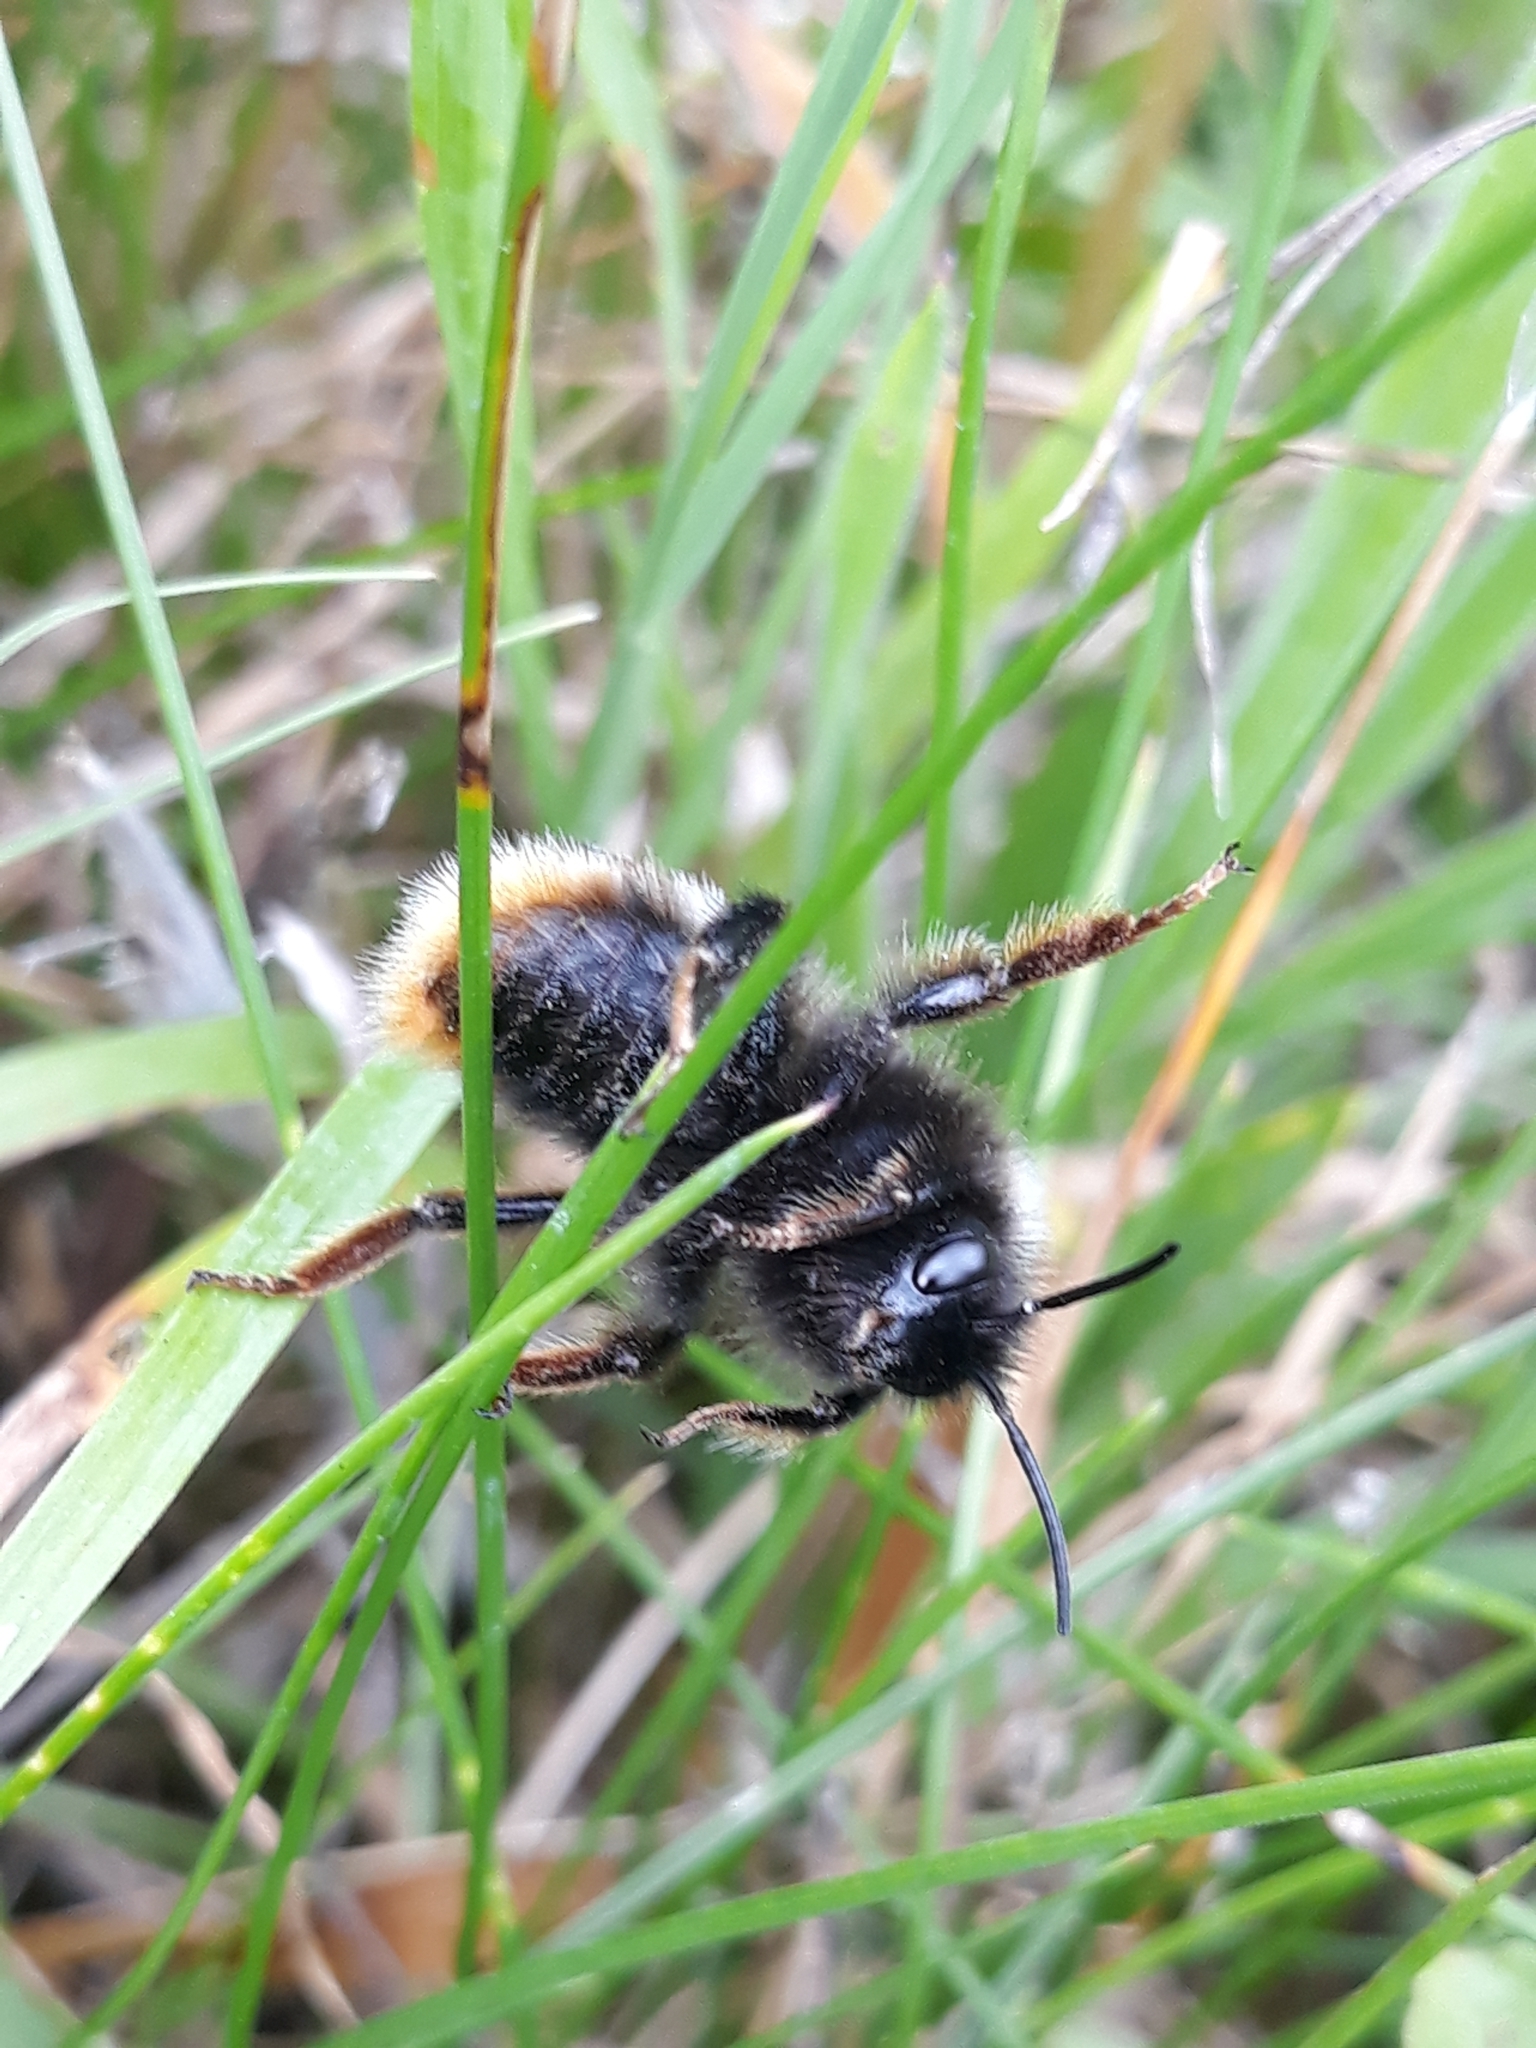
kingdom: Animalia
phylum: Arthropoda
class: Insecta
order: Hymenoptera
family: Apidae
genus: Bombus
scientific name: Bombus rupestris
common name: Hill cuckoo-bee
